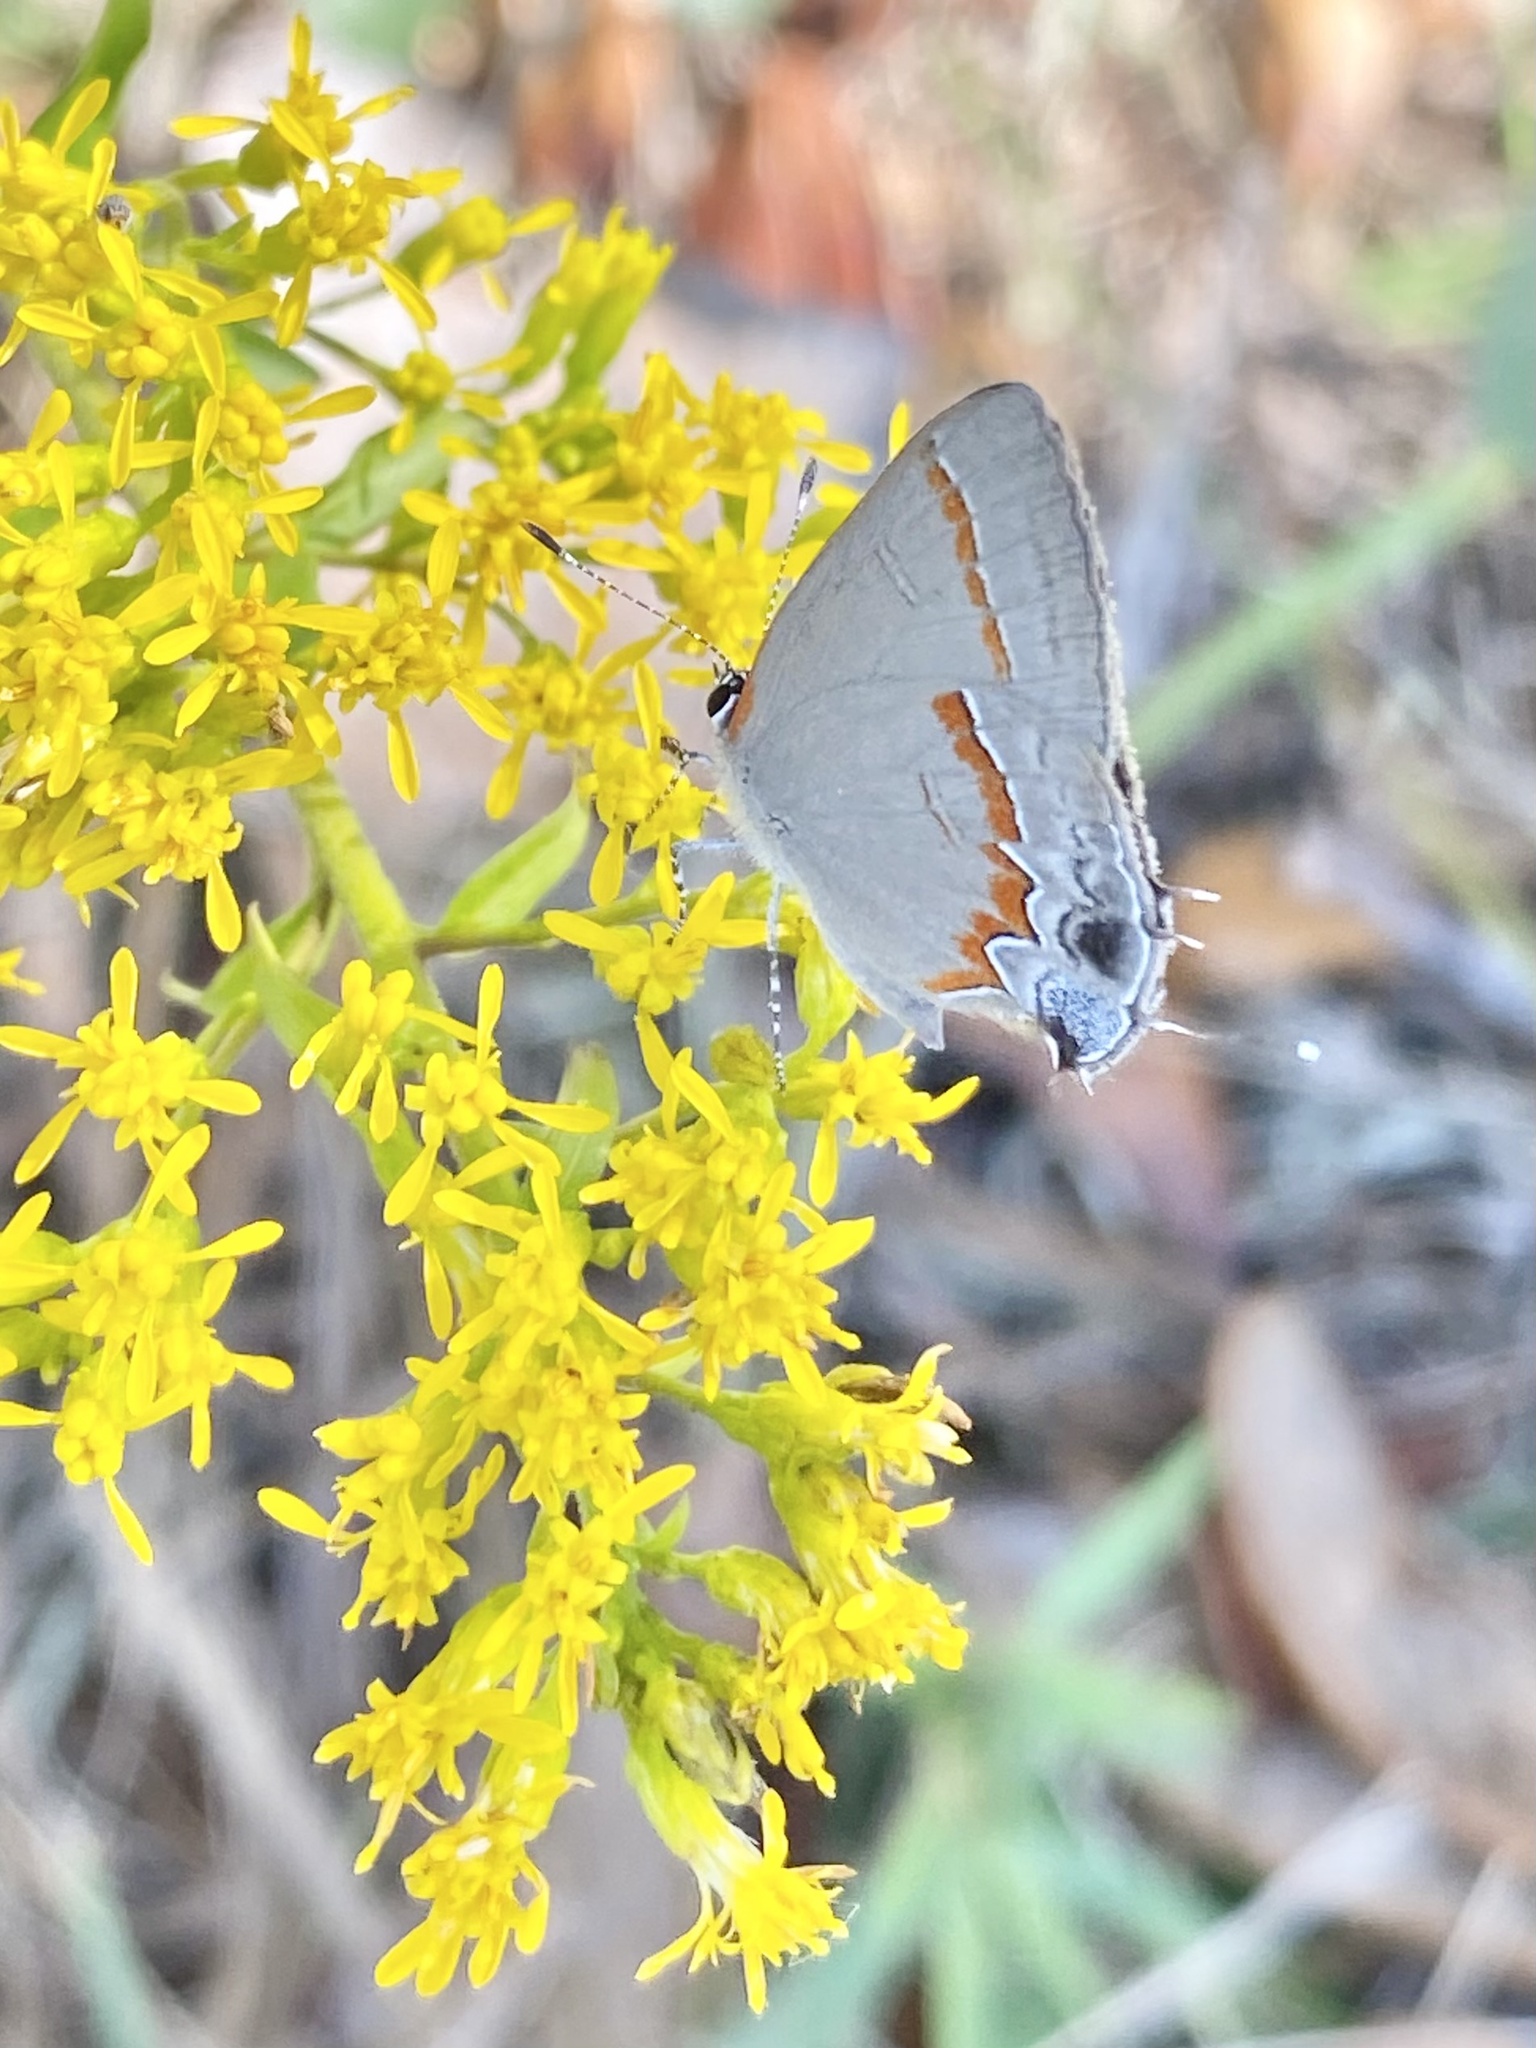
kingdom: Animalia
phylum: Arthropoda
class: Insecta
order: Lepidoptera
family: Lycaenidae
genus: Calycopis
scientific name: Calycopis cecrops
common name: Red-banded hairstreak
